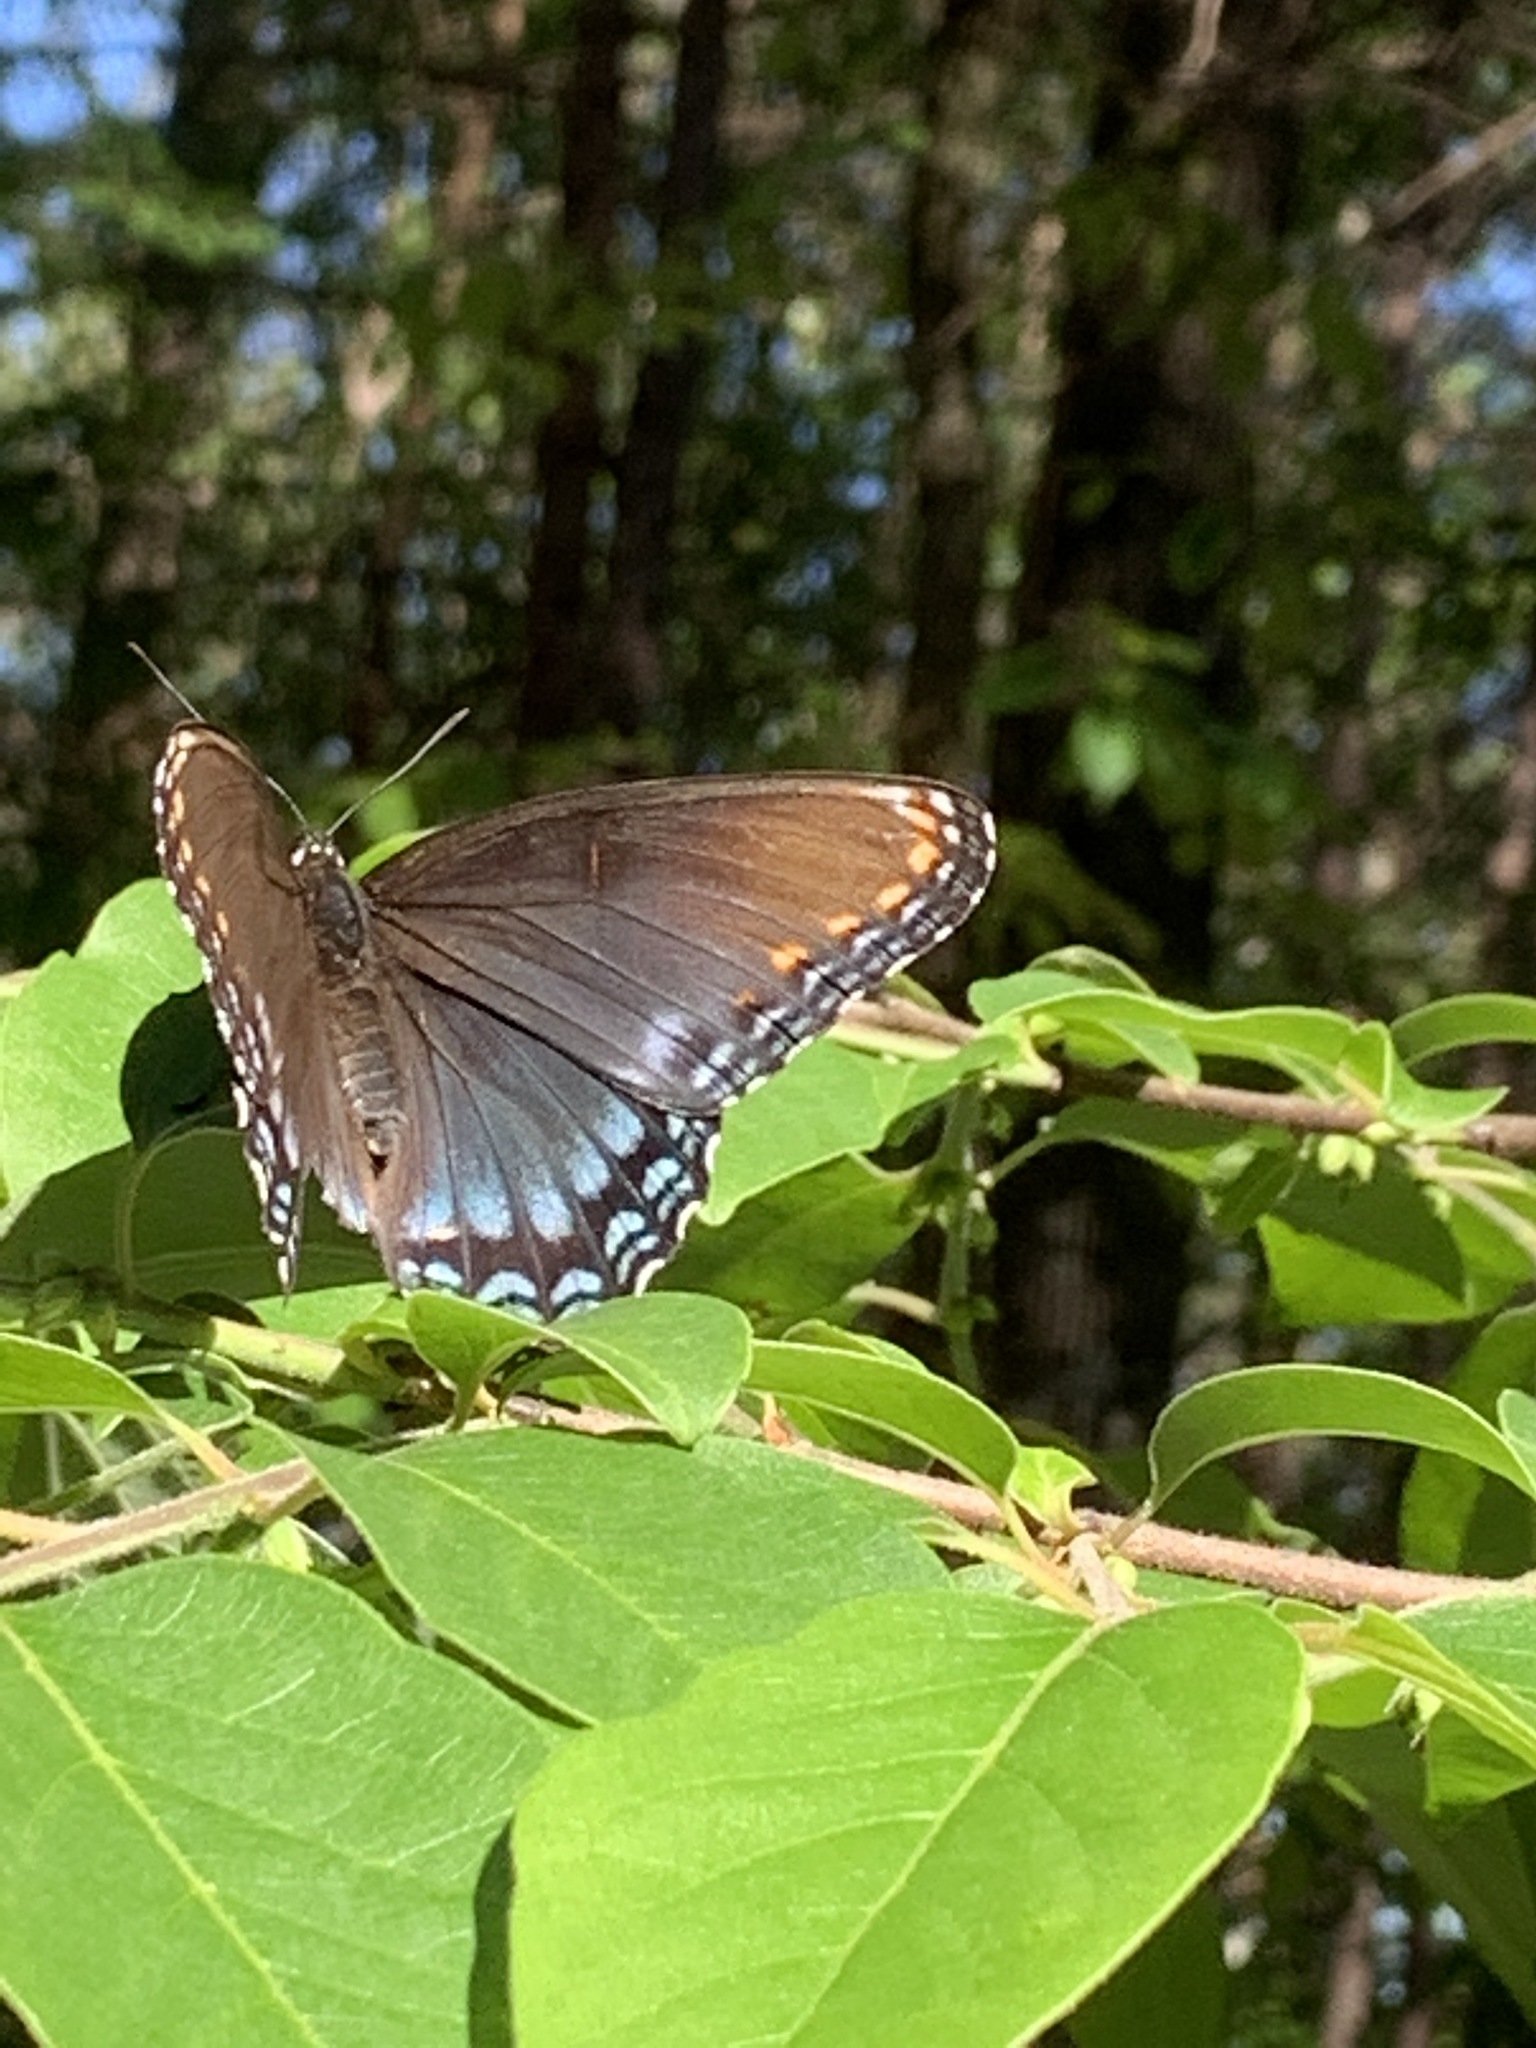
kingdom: Animalia
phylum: Arthropoda
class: Insecta
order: Lepidoptera
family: Nymphalidae
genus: Limenitis
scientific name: Limenitis arthemis
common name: Red-spotted admiral
